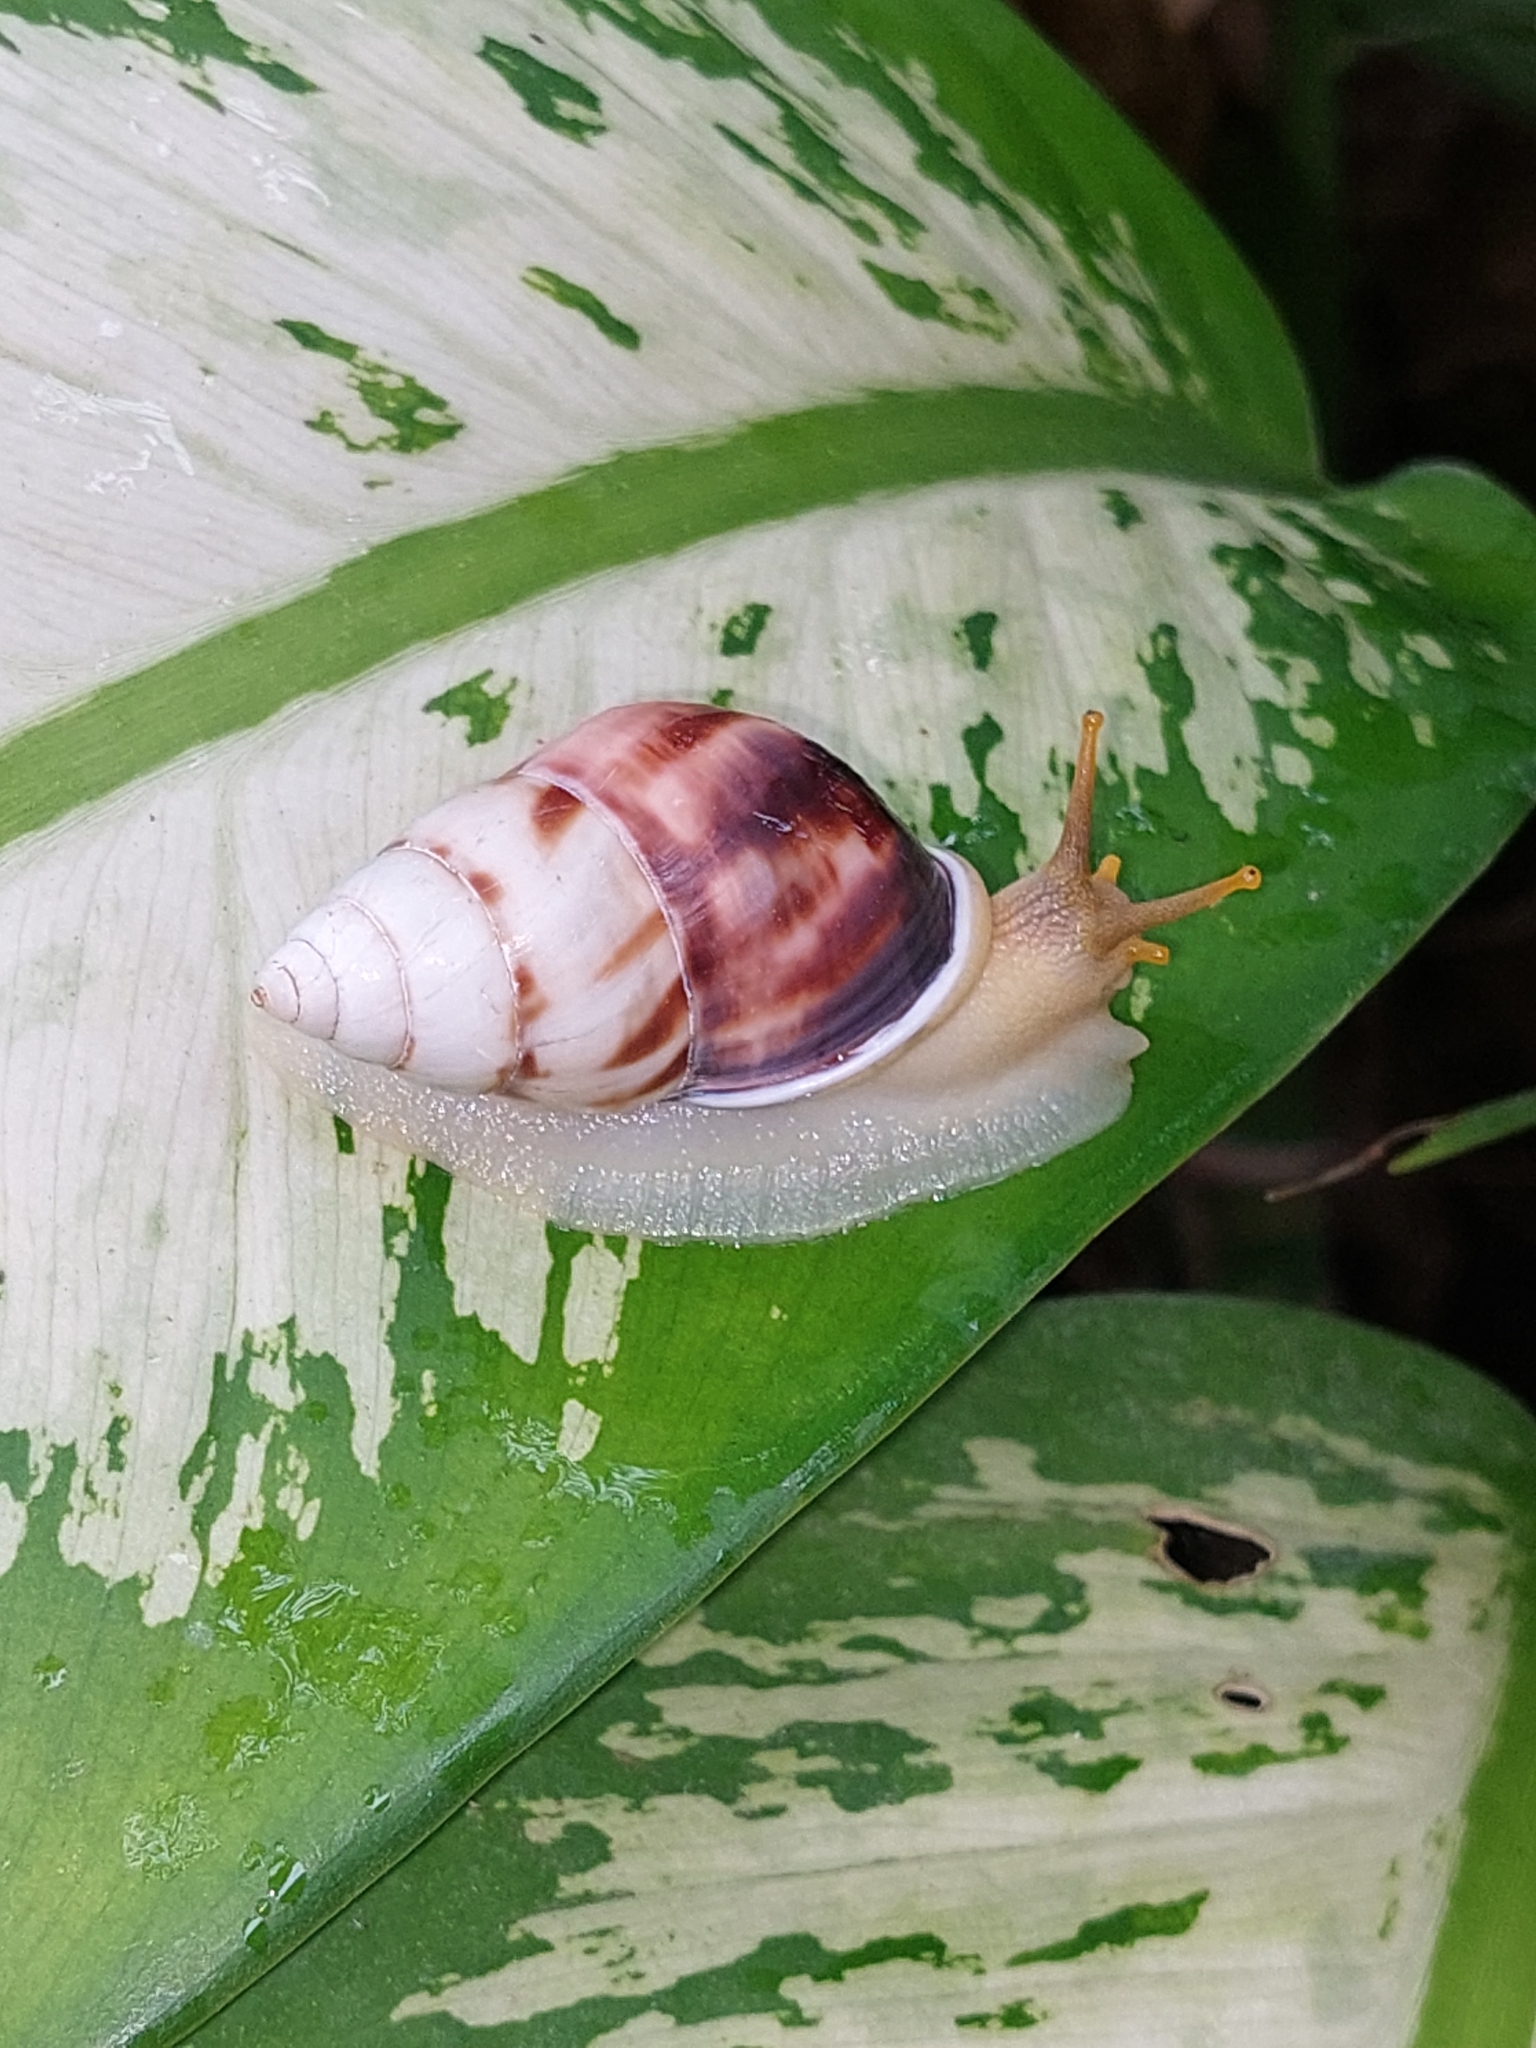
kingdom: Animalia
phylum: Mollusca
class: Gastropoda
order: Stylommatophora
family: Camaenidae
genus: Amphidromus
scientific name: Amphidromus perversus
